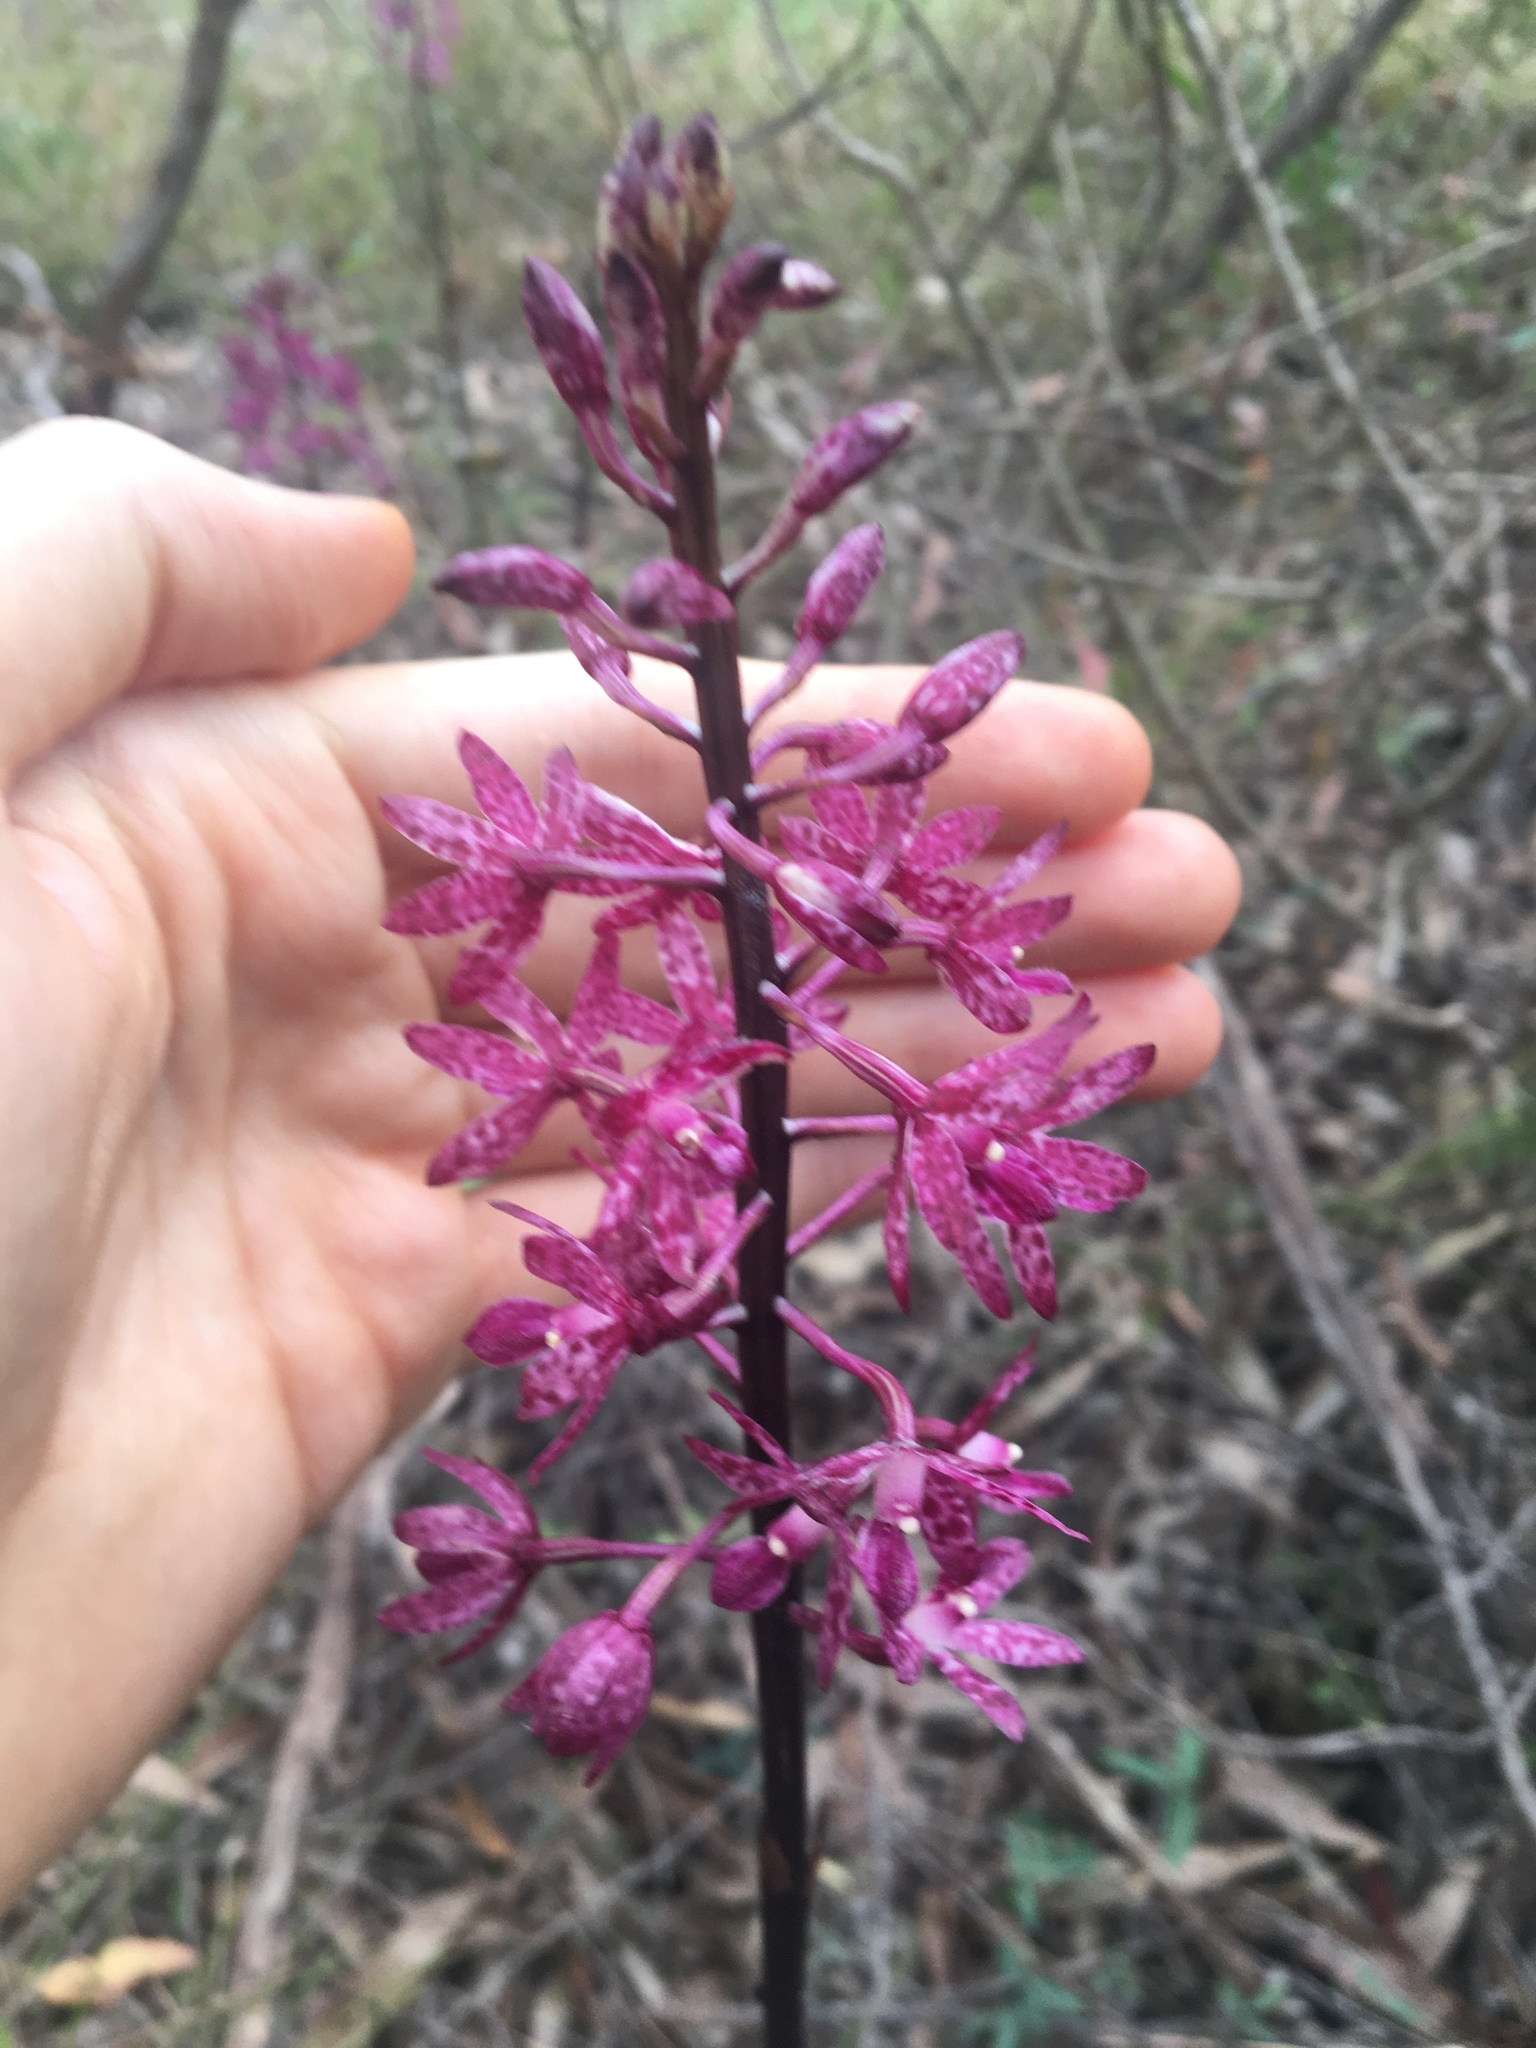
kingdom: Plantae
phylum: Tracheophyta
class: Liliopsida
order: Asparagales
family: Orchidaceae
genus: Dipodium
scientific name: Dipodium squamatum
